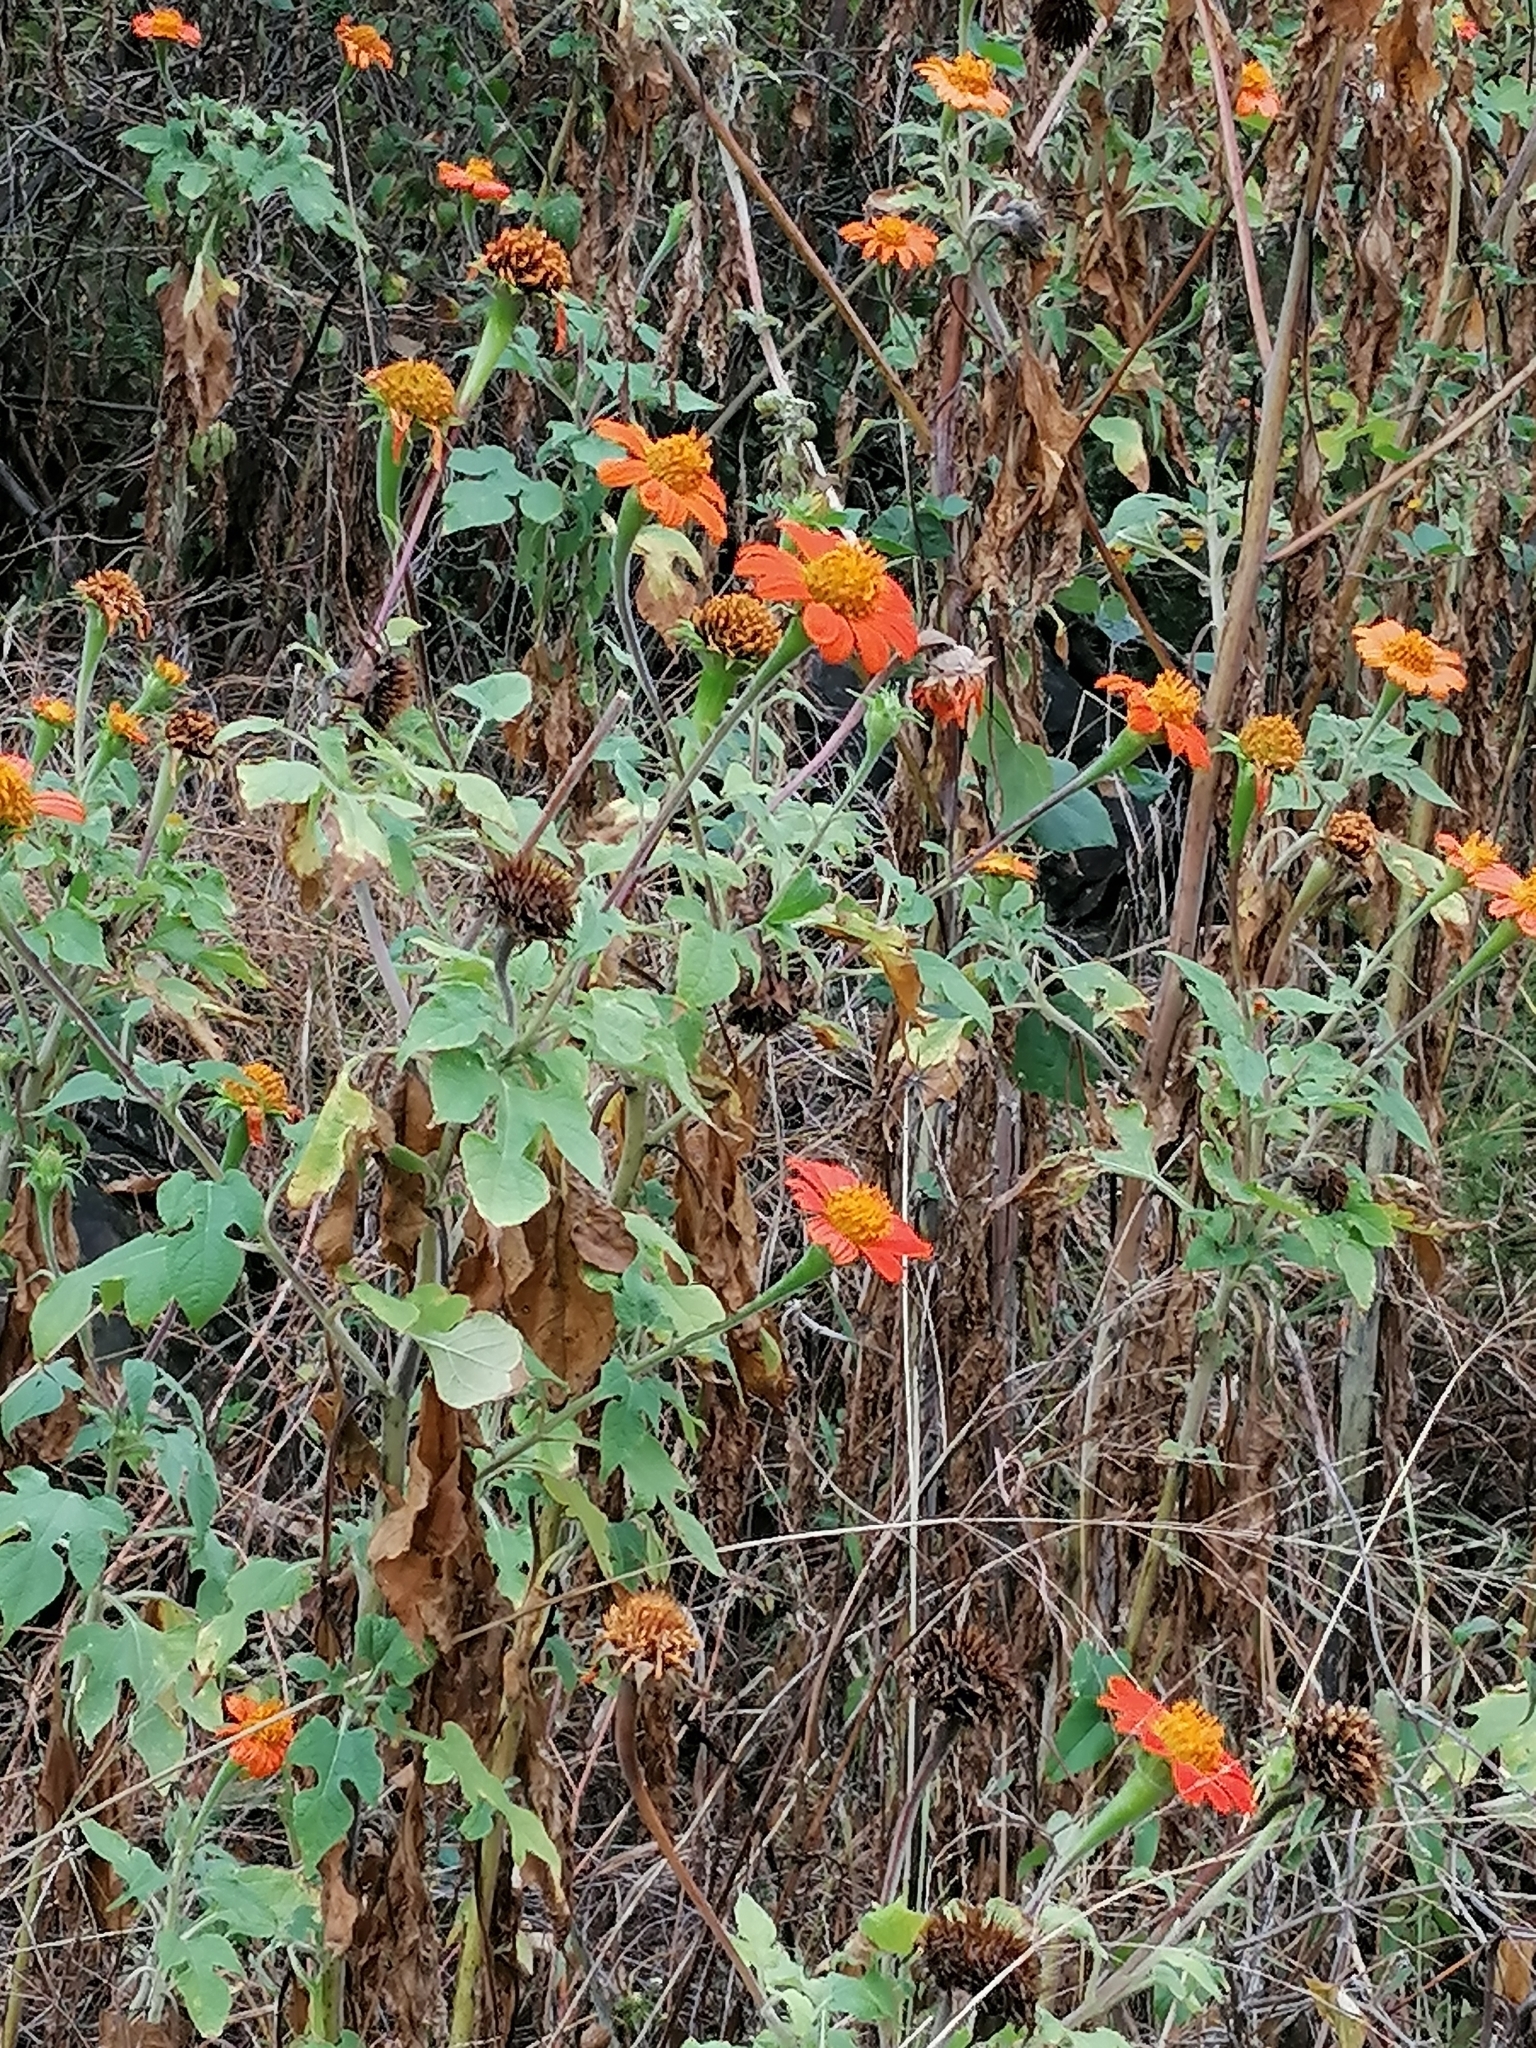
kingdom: Plantae
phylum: Tracheophyta
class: Magnoliopsida
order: Asterales
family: Asteraceae
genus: Tithonia
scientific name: Tithonia rotundifolia
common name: Sunflower
